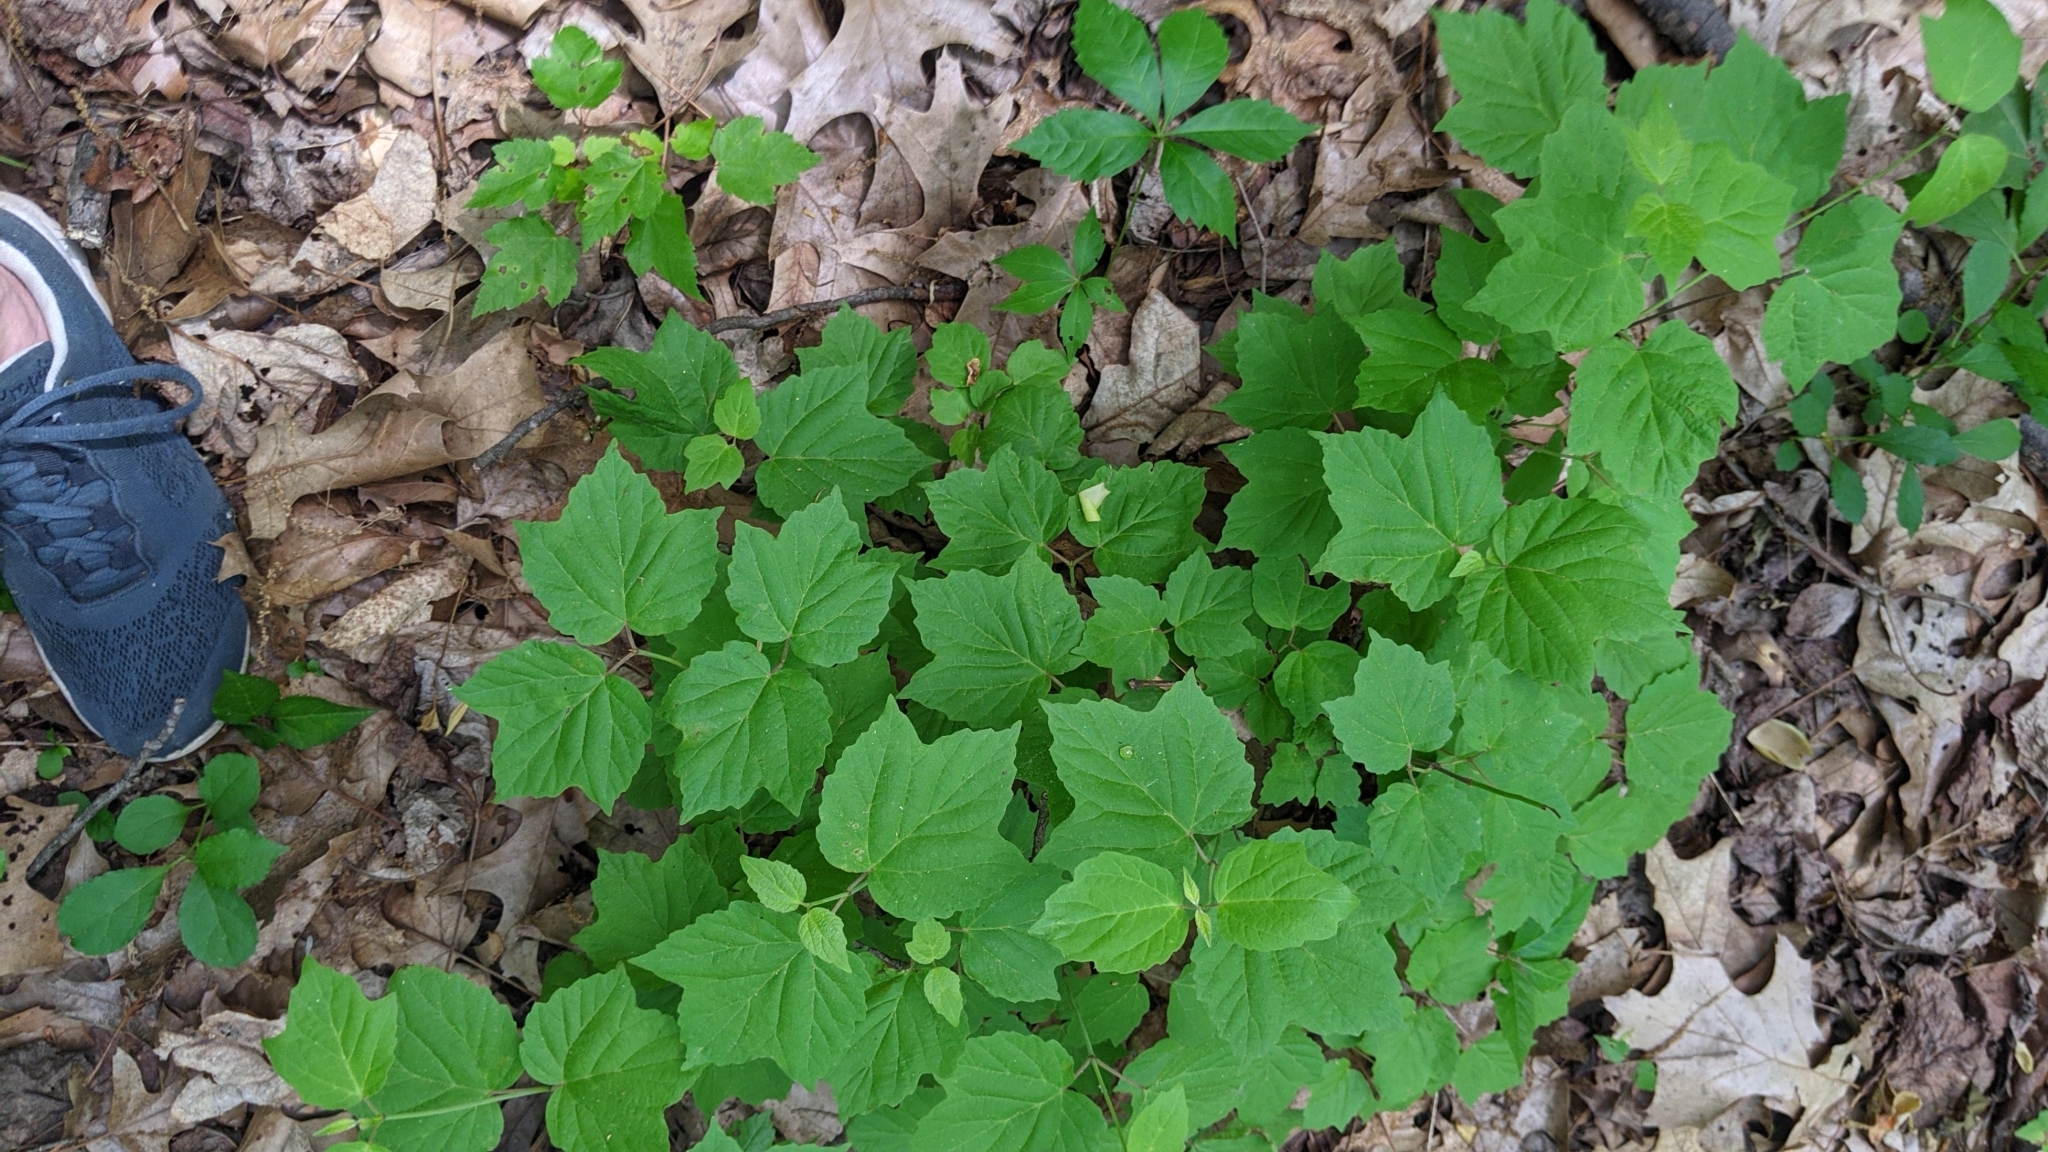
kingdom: Plantae
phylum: Tracheophyta
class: Magnoliopsida
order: Dipsacales
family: Viburnaceae
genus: Viburnum
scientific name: Viburnum acerifolium
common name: Dockmackie
